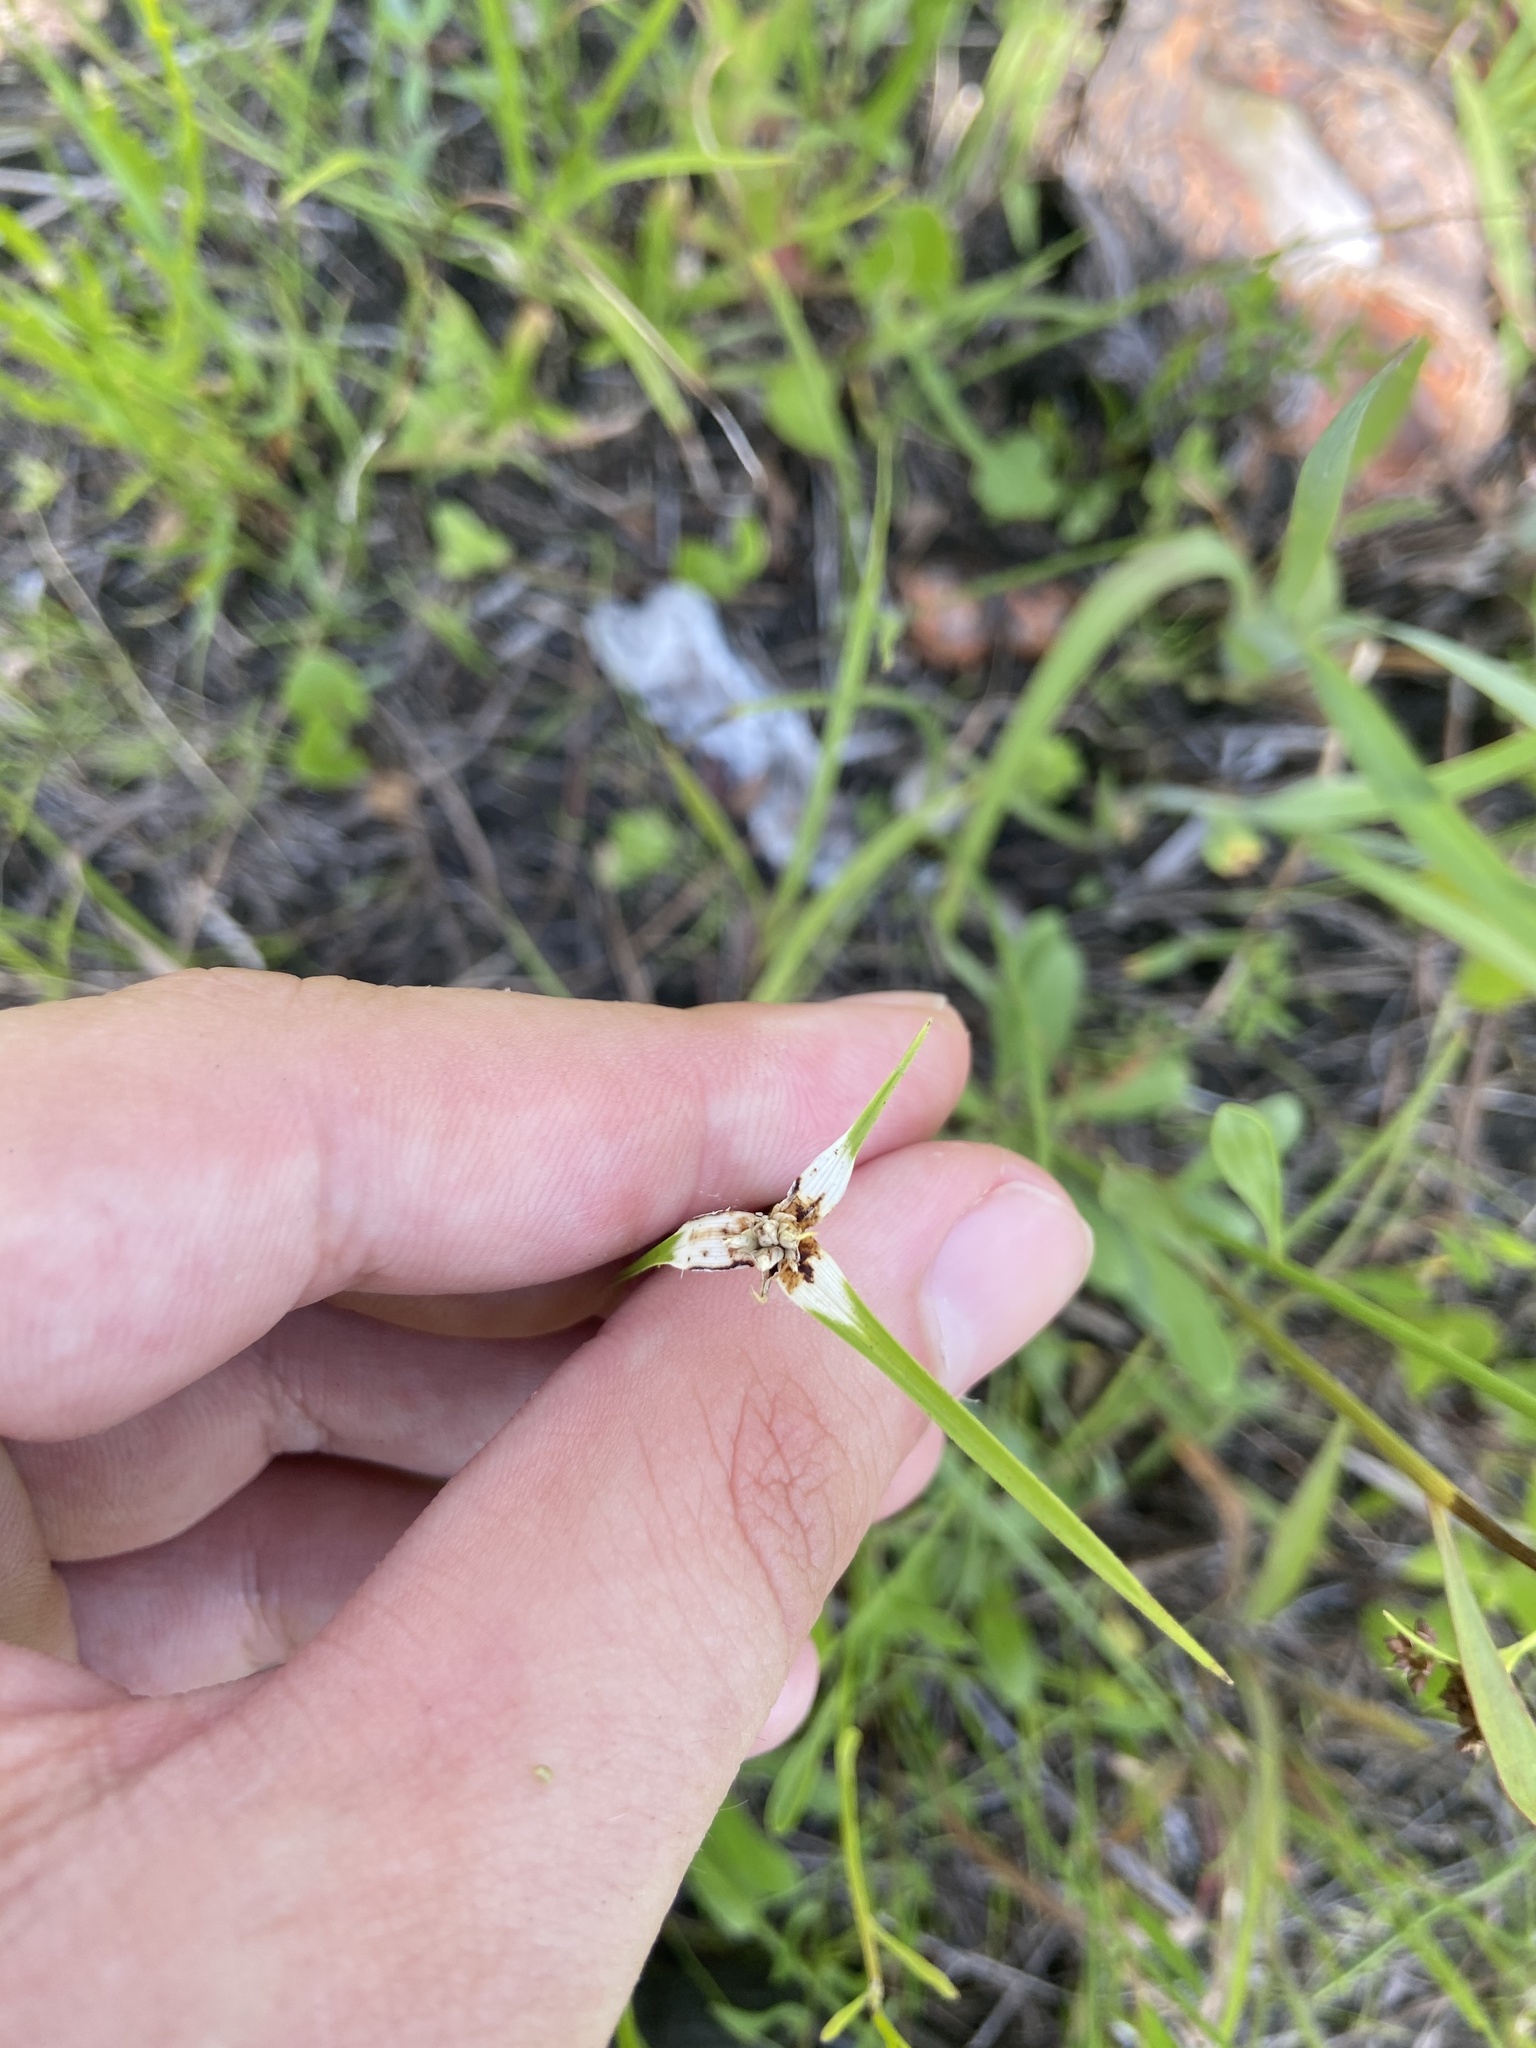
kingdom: Plantae
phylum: Tracheophyta
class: Liliopsida
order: Poales
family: Cyperaceae
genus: Rhynchospora
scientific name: Rhynchospora colorata
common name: Star sedge
